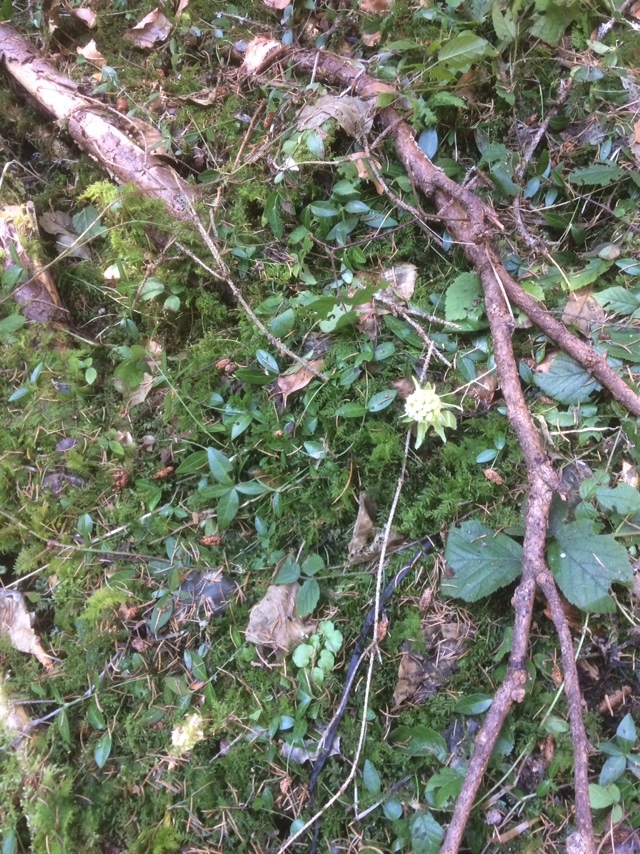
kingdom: Plantae
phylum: Tracheophyta
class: Magnoliopsida
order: Brassicales
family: Brassicaceae
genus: Cardamine
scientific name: Cardamine amara
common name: Large bitter-cress
